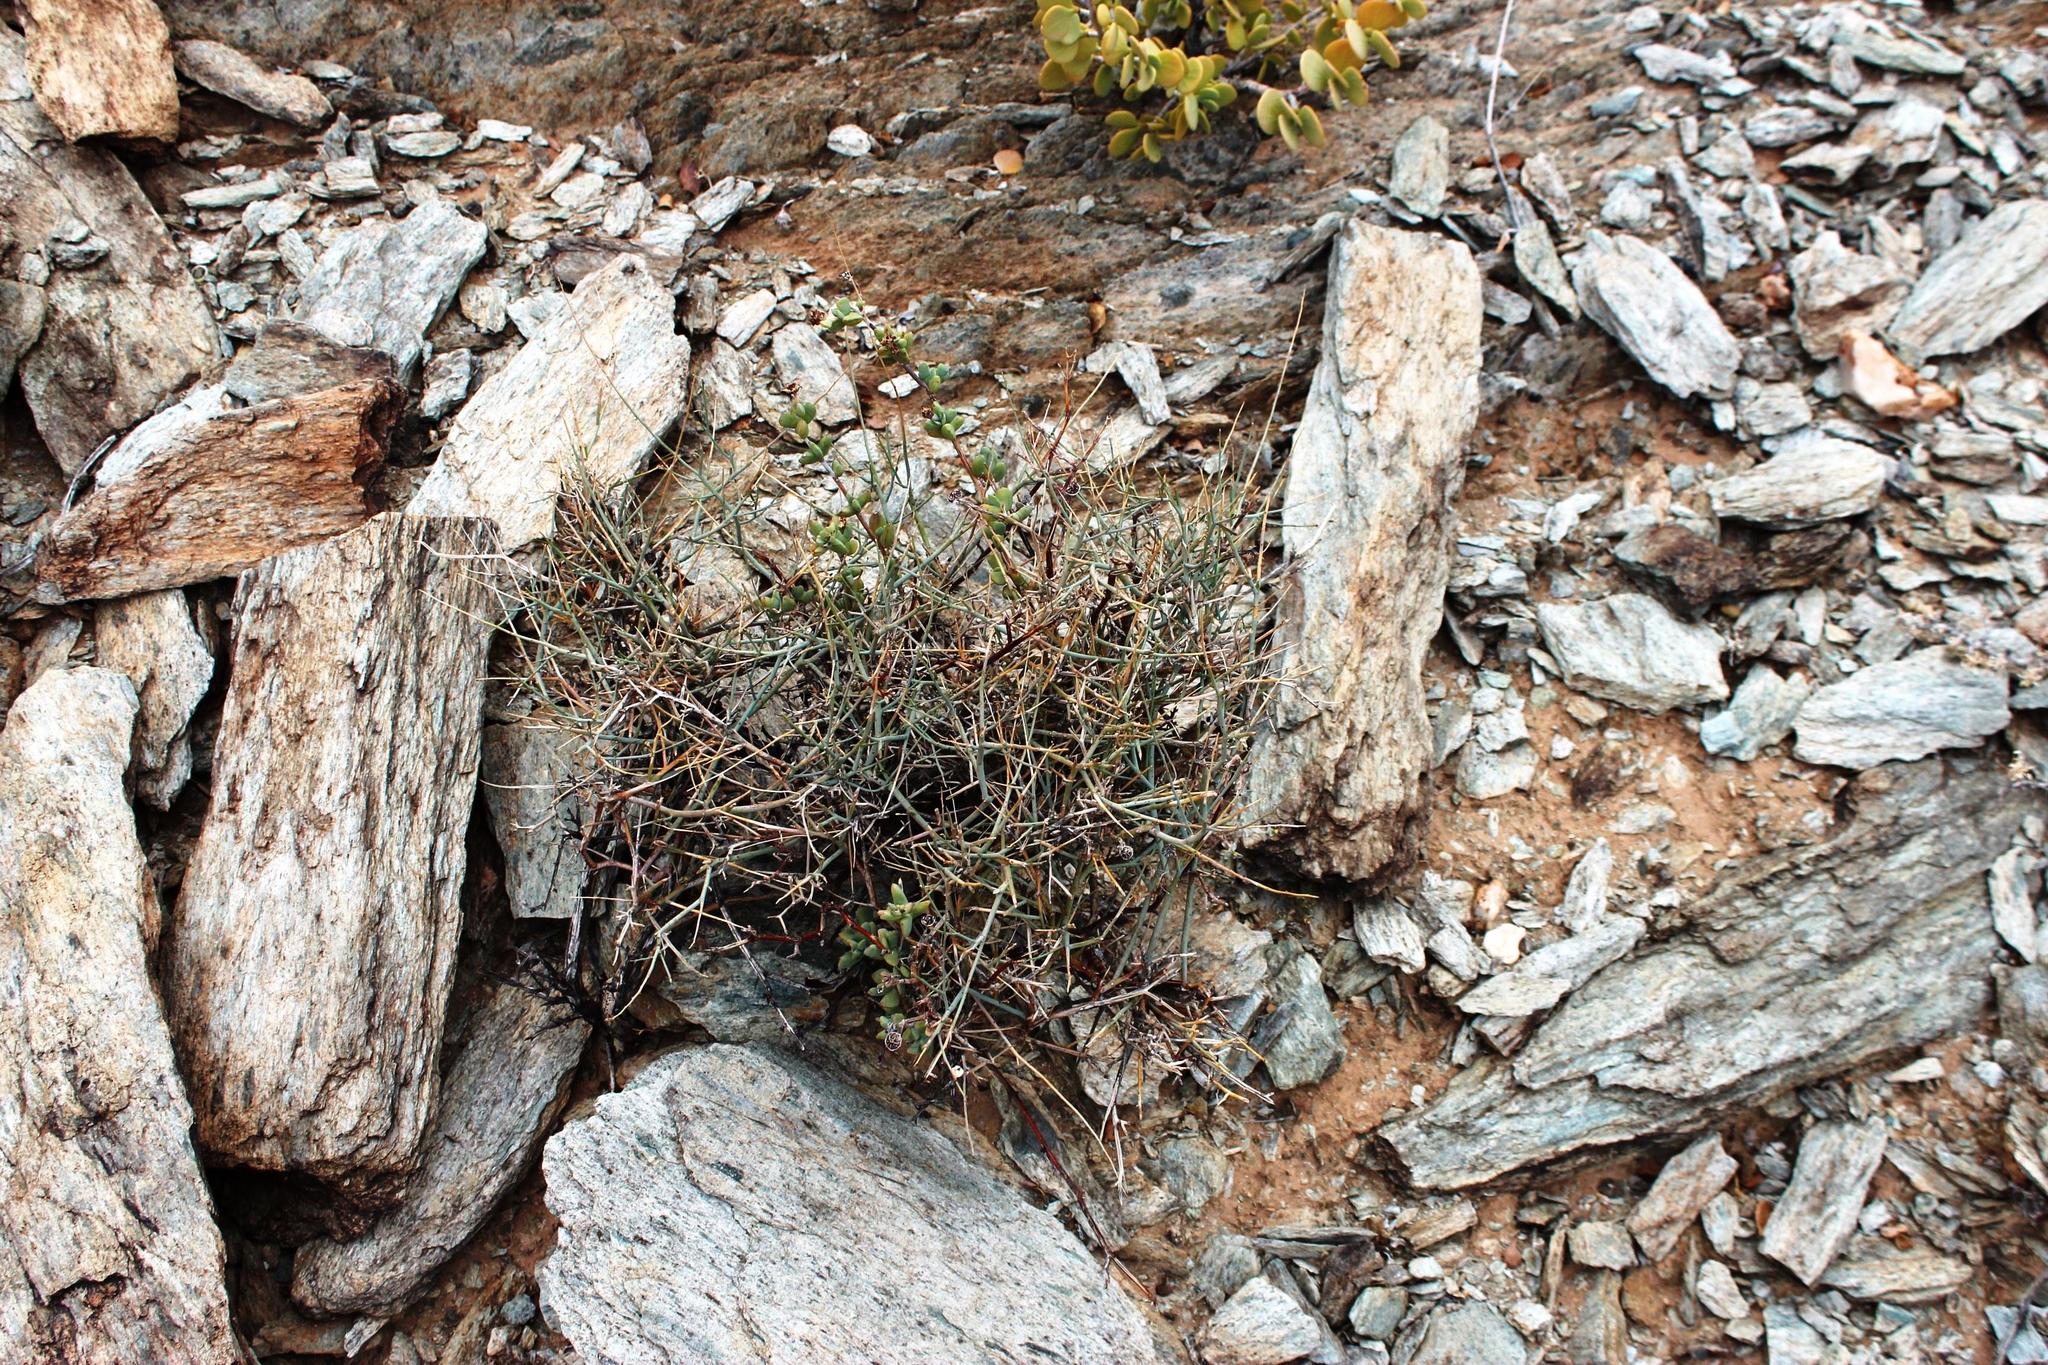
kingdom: Plantae
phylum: Tracheophyta
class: Magnoliopsida
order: Caryophyllales
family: Aizoaceae
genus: Leipoldtia
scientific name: Leipoldtia weigangiana
